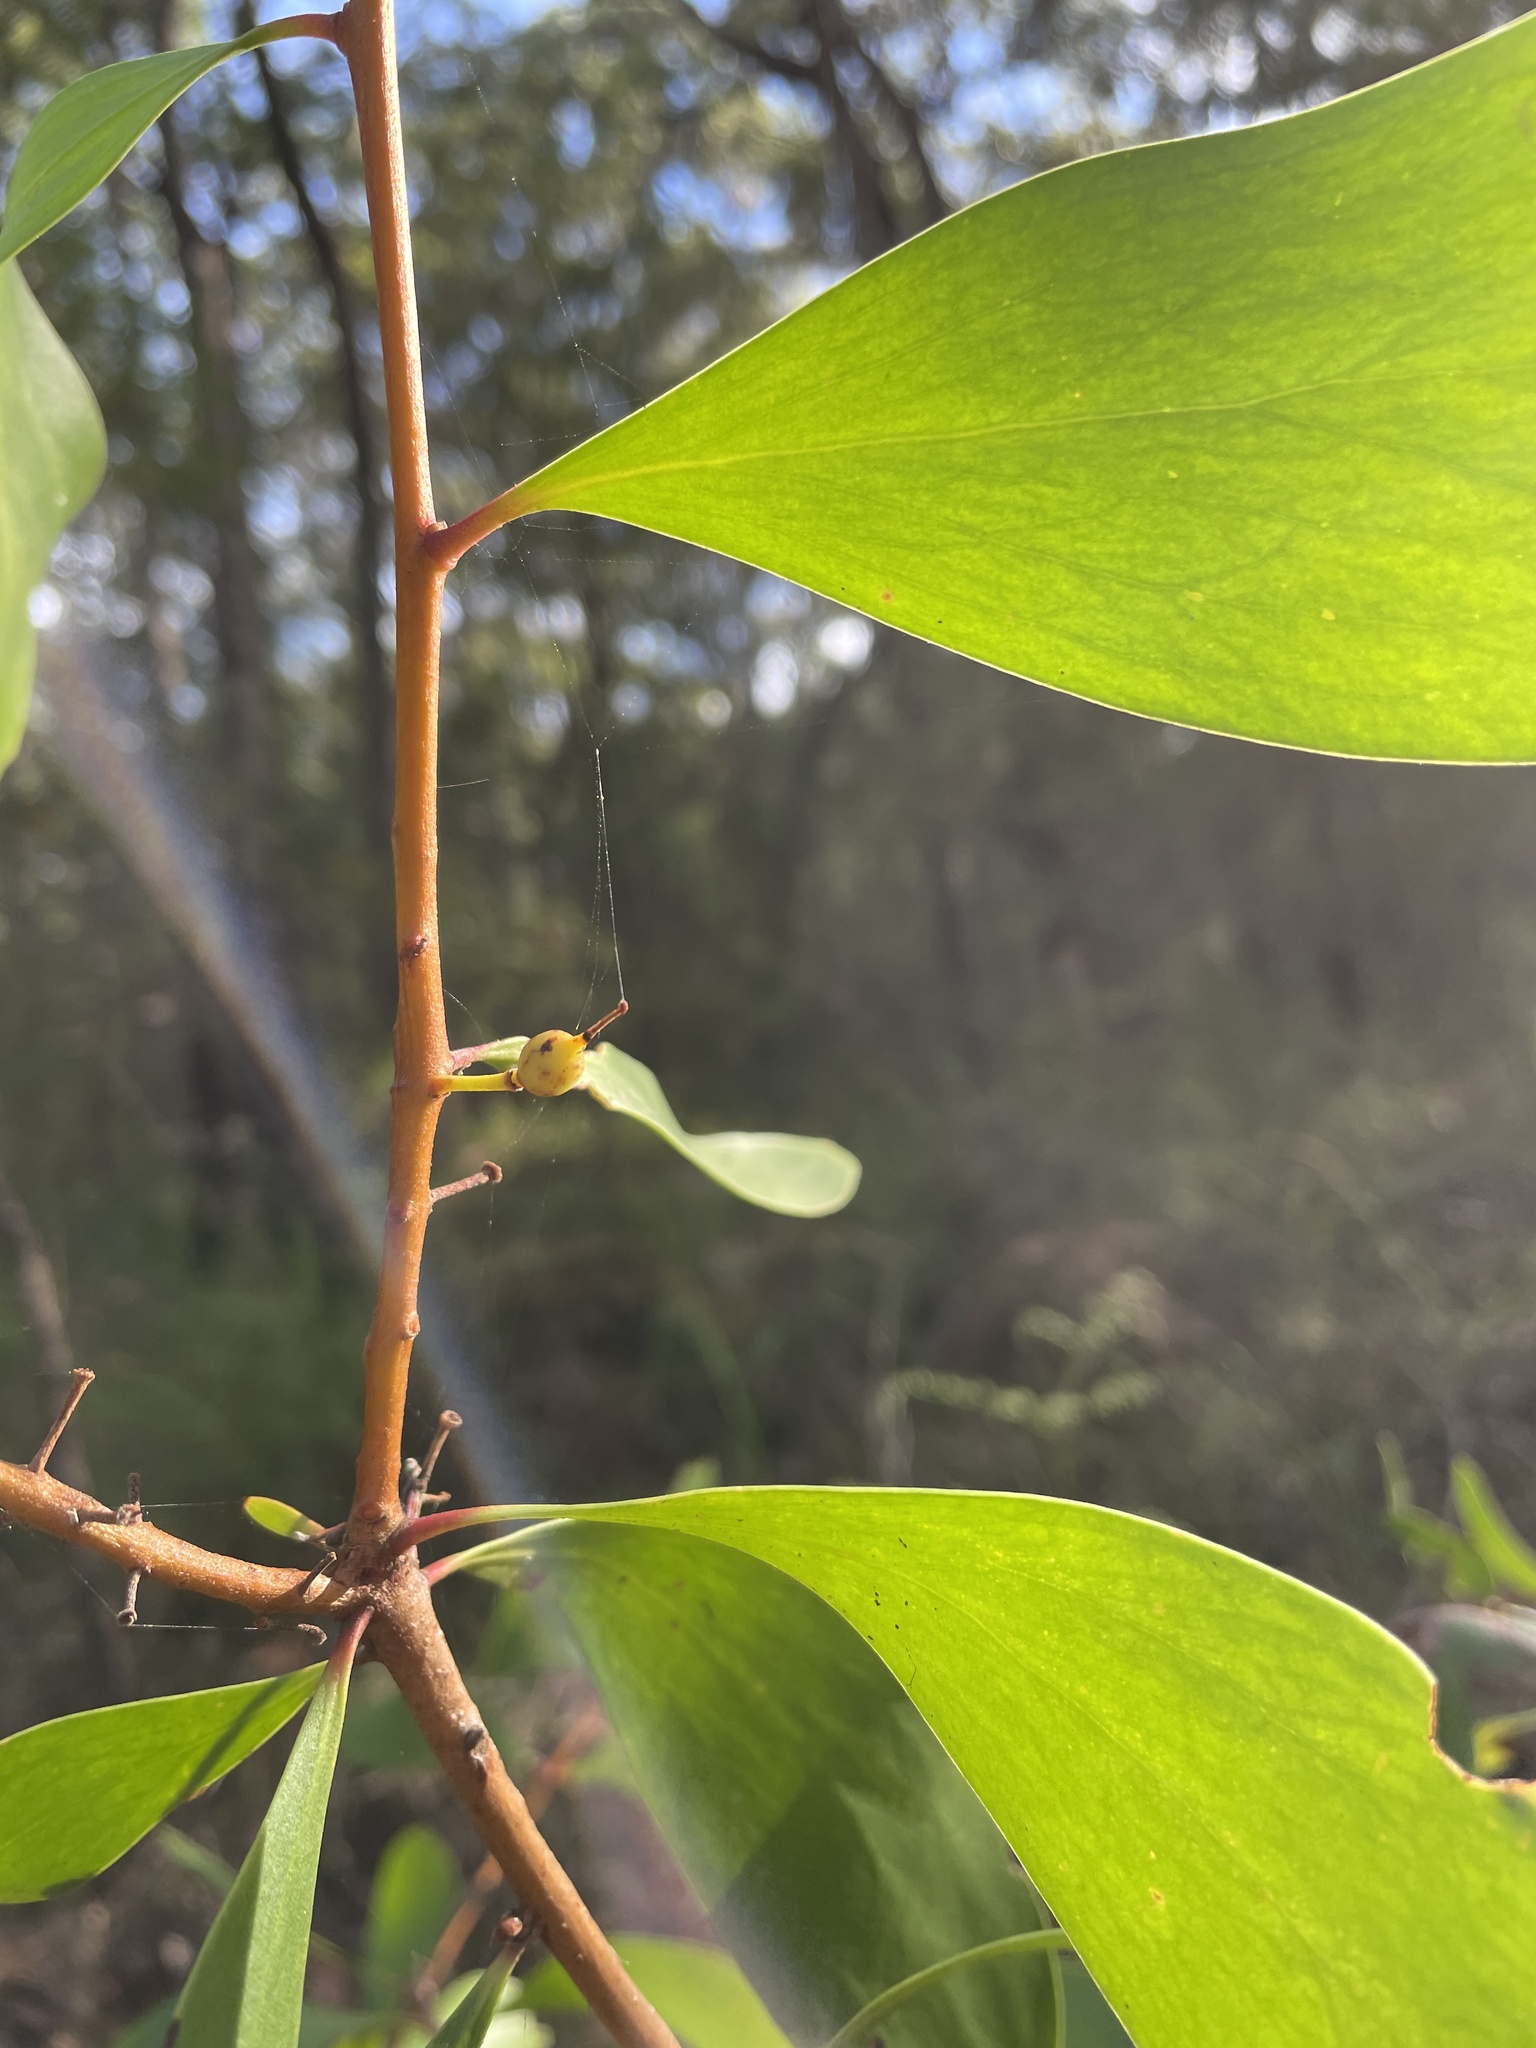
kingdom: Plantae
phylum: Tracheophyta
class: Magnoliopsida
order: Proteales
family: Proteaceae
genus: Persoonia
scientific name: Persoonia levis
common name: Smooth geebung
